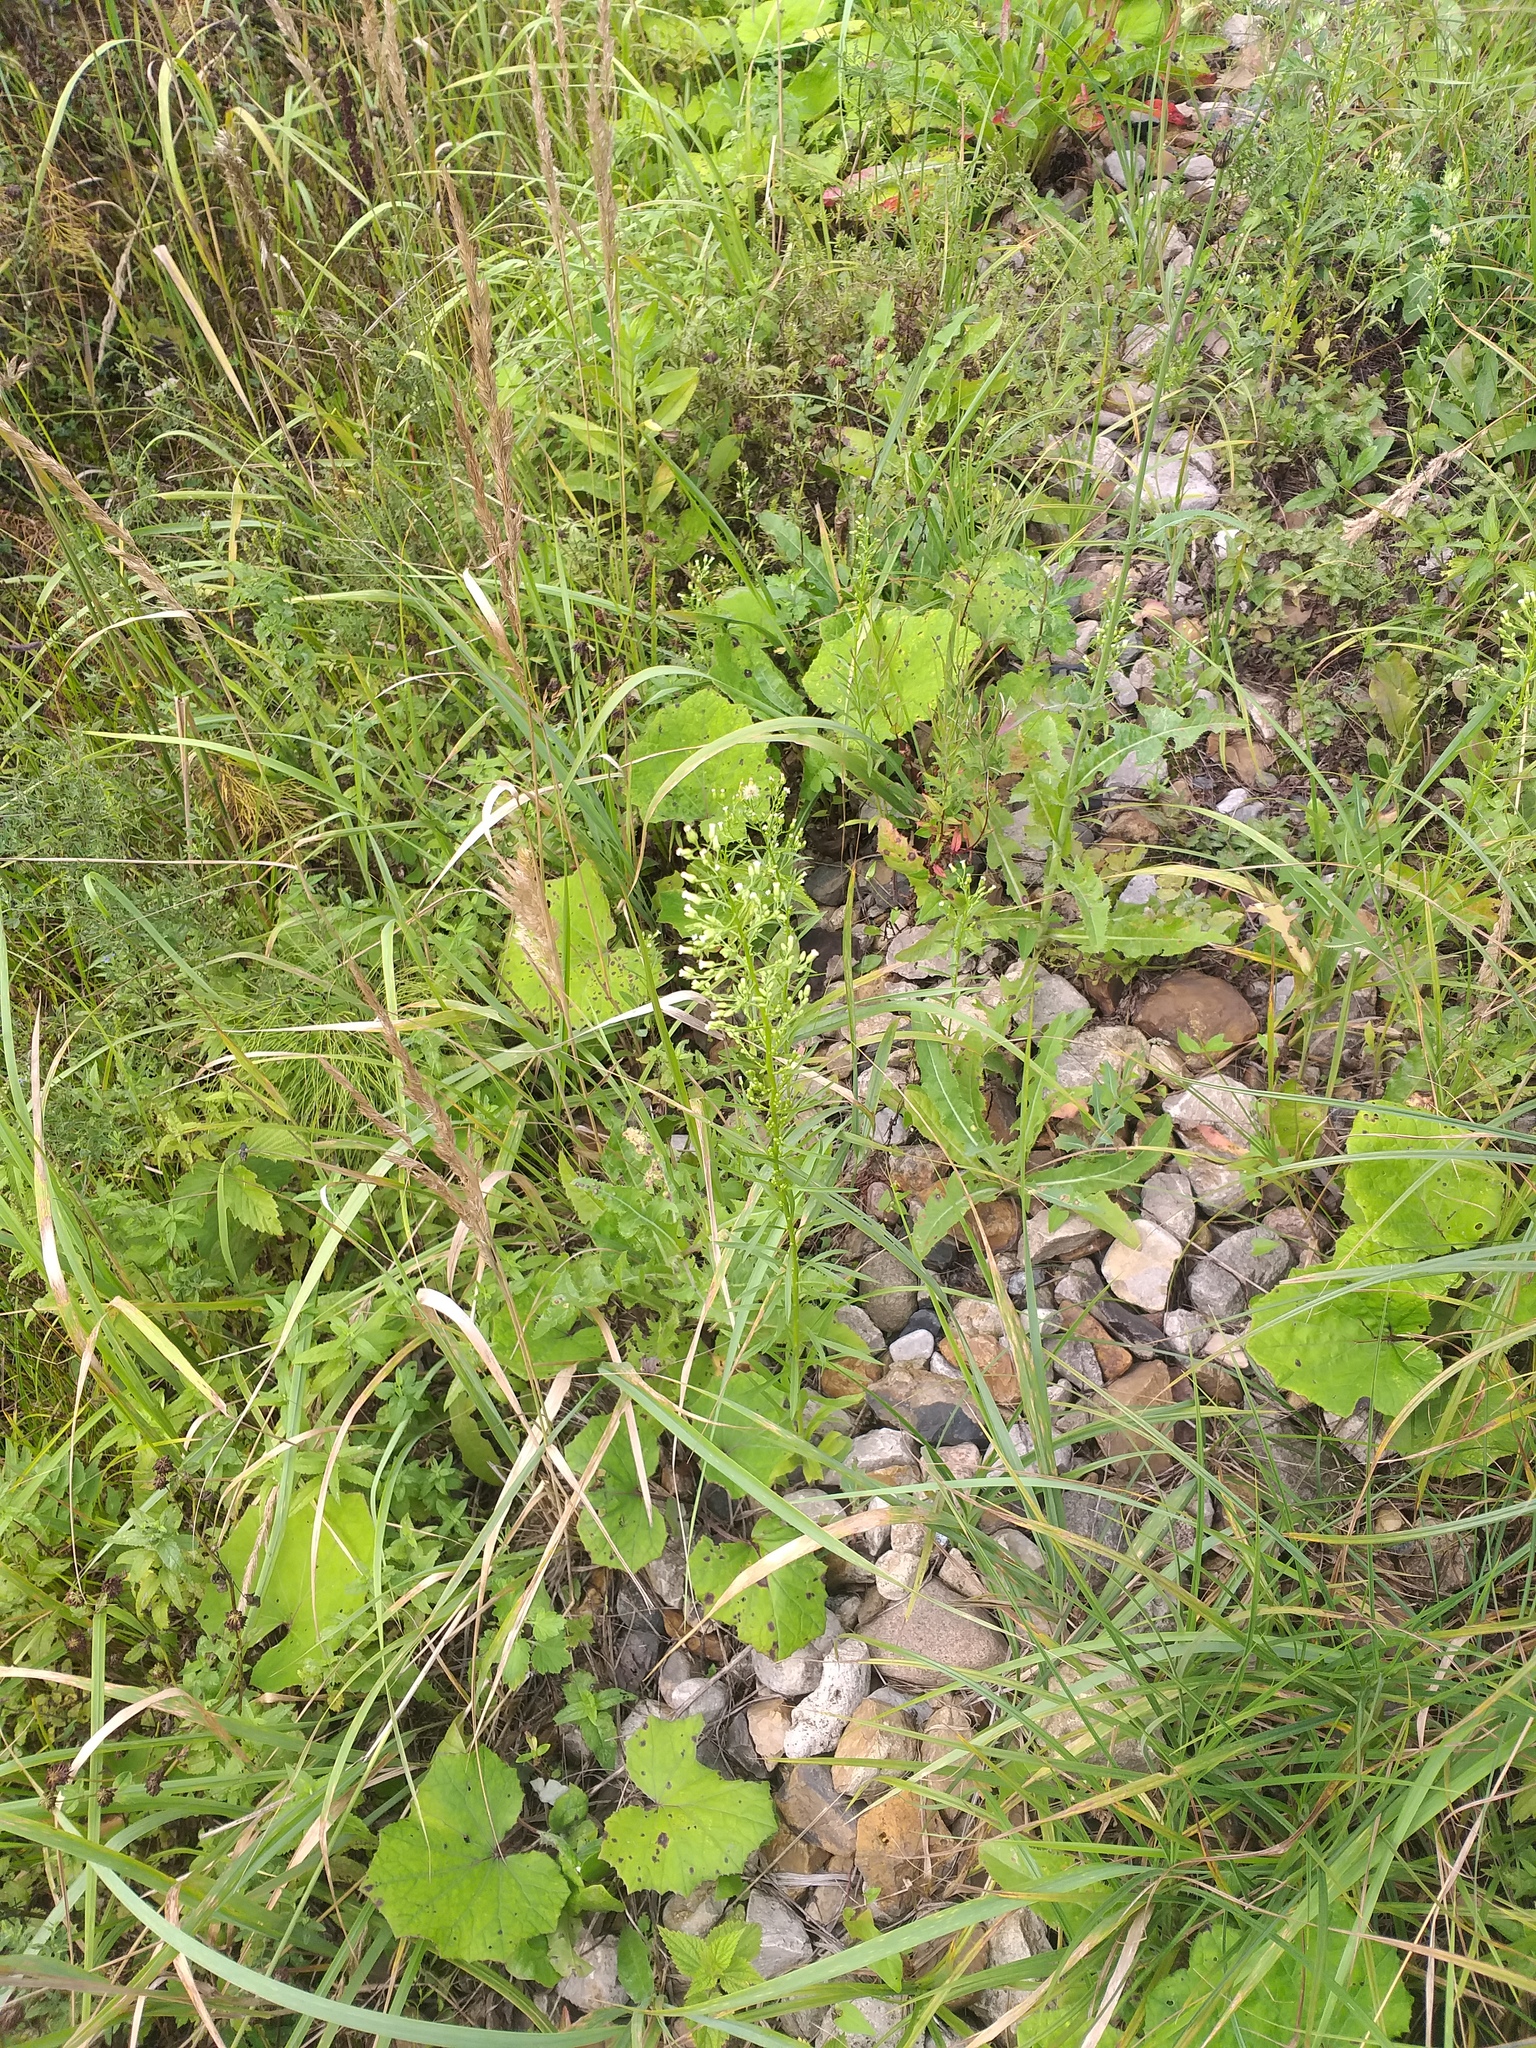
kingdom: Plantae
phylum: Tracheophyta
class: Magnoliopsida
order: Asterales
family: Asteraceae
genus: Erigeron
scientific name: Erigeron canadensis
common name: Canadian fleabane
